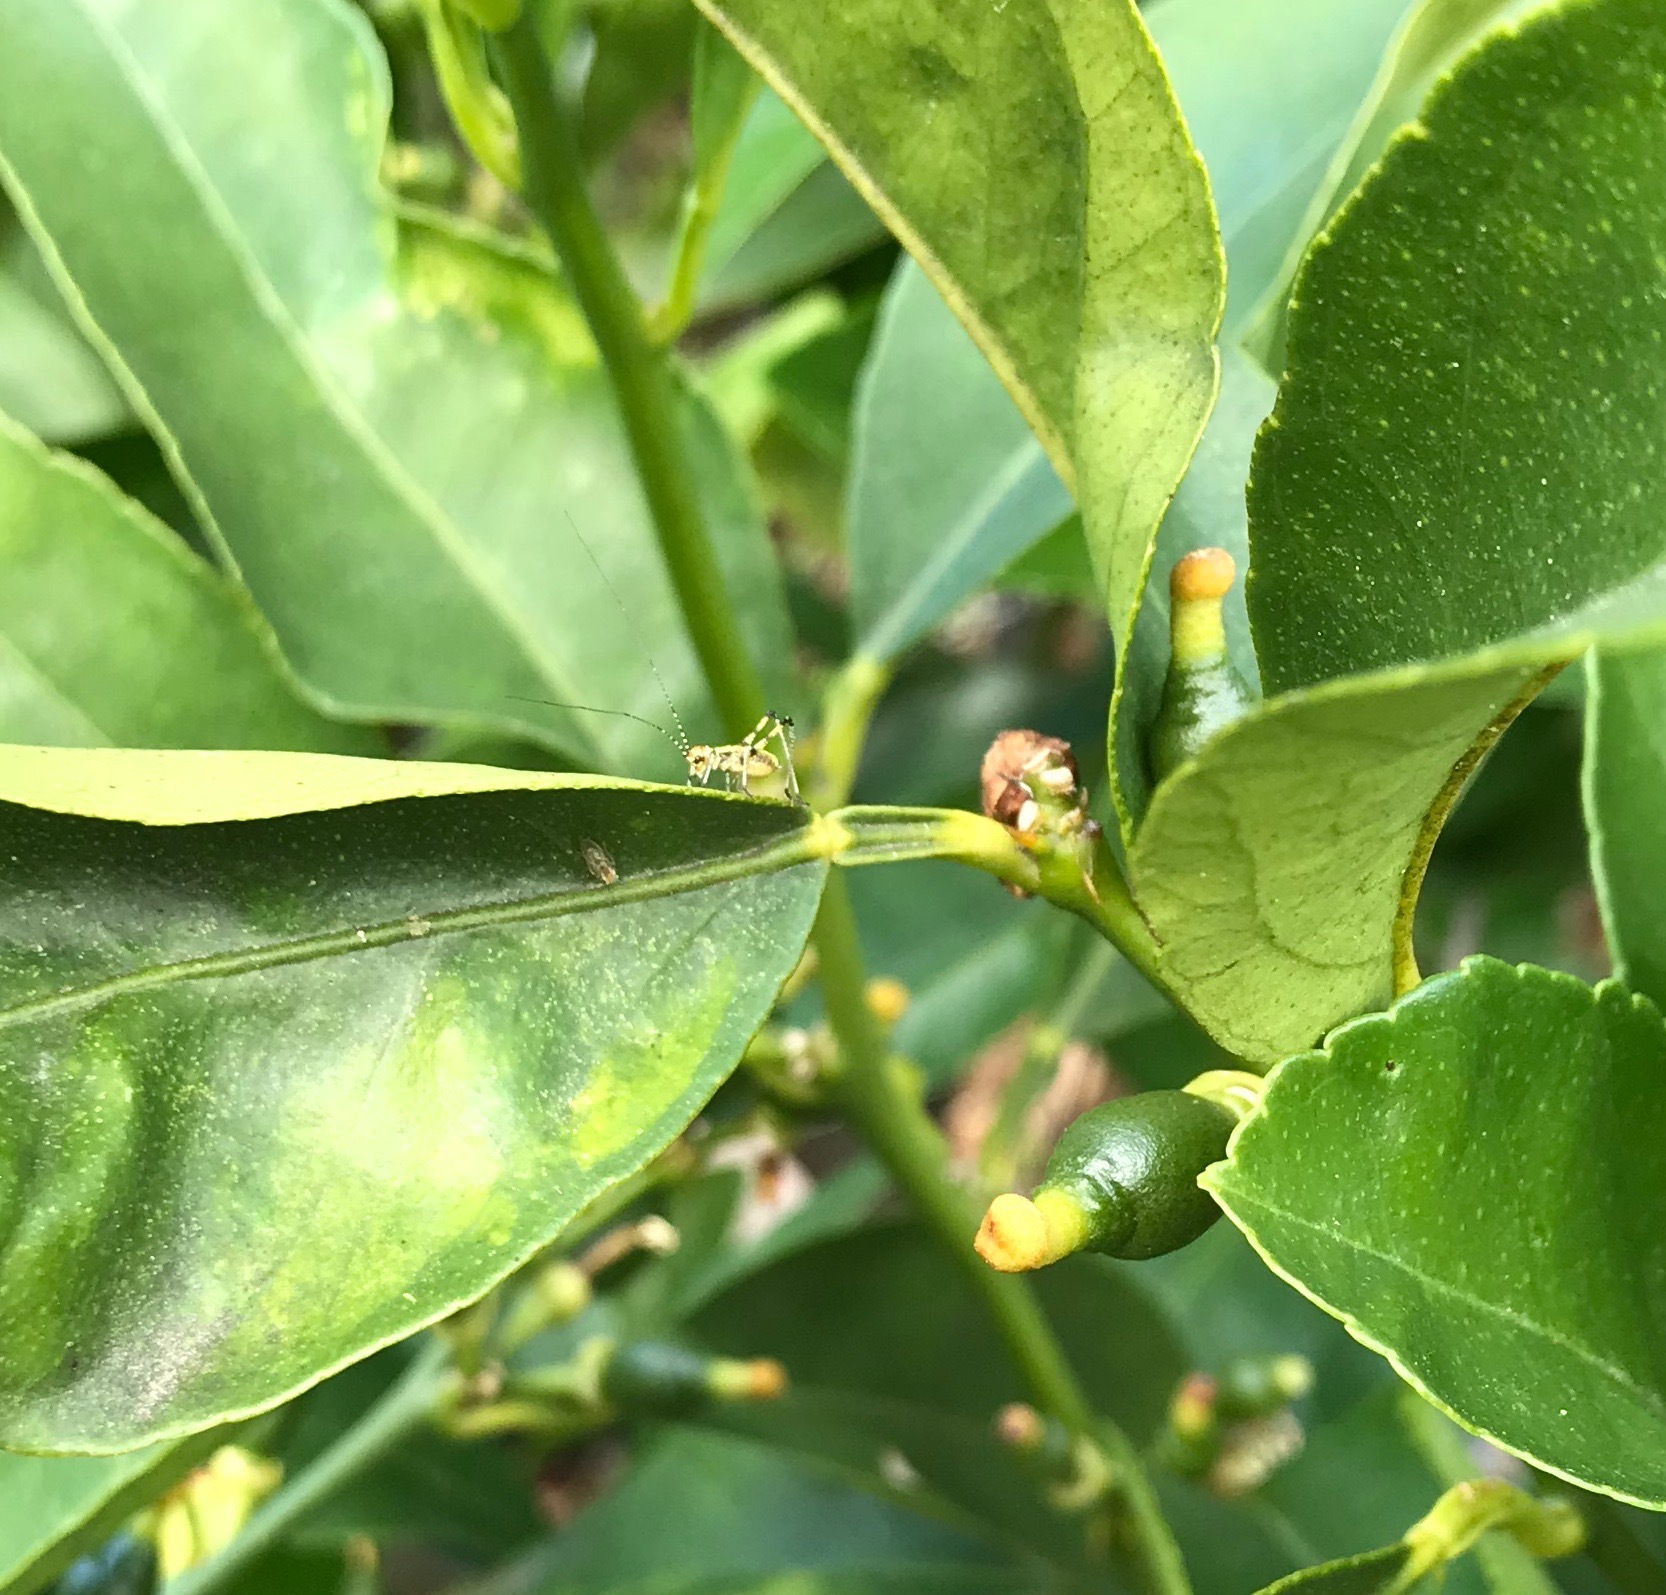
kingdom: Animalia
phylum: Arthropoda
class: Insecta
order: Orthoptera
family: Tettigoniidae
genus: Phaneroptera
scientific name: Phaneroptera nana
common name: Southern sickle bush-cricket
